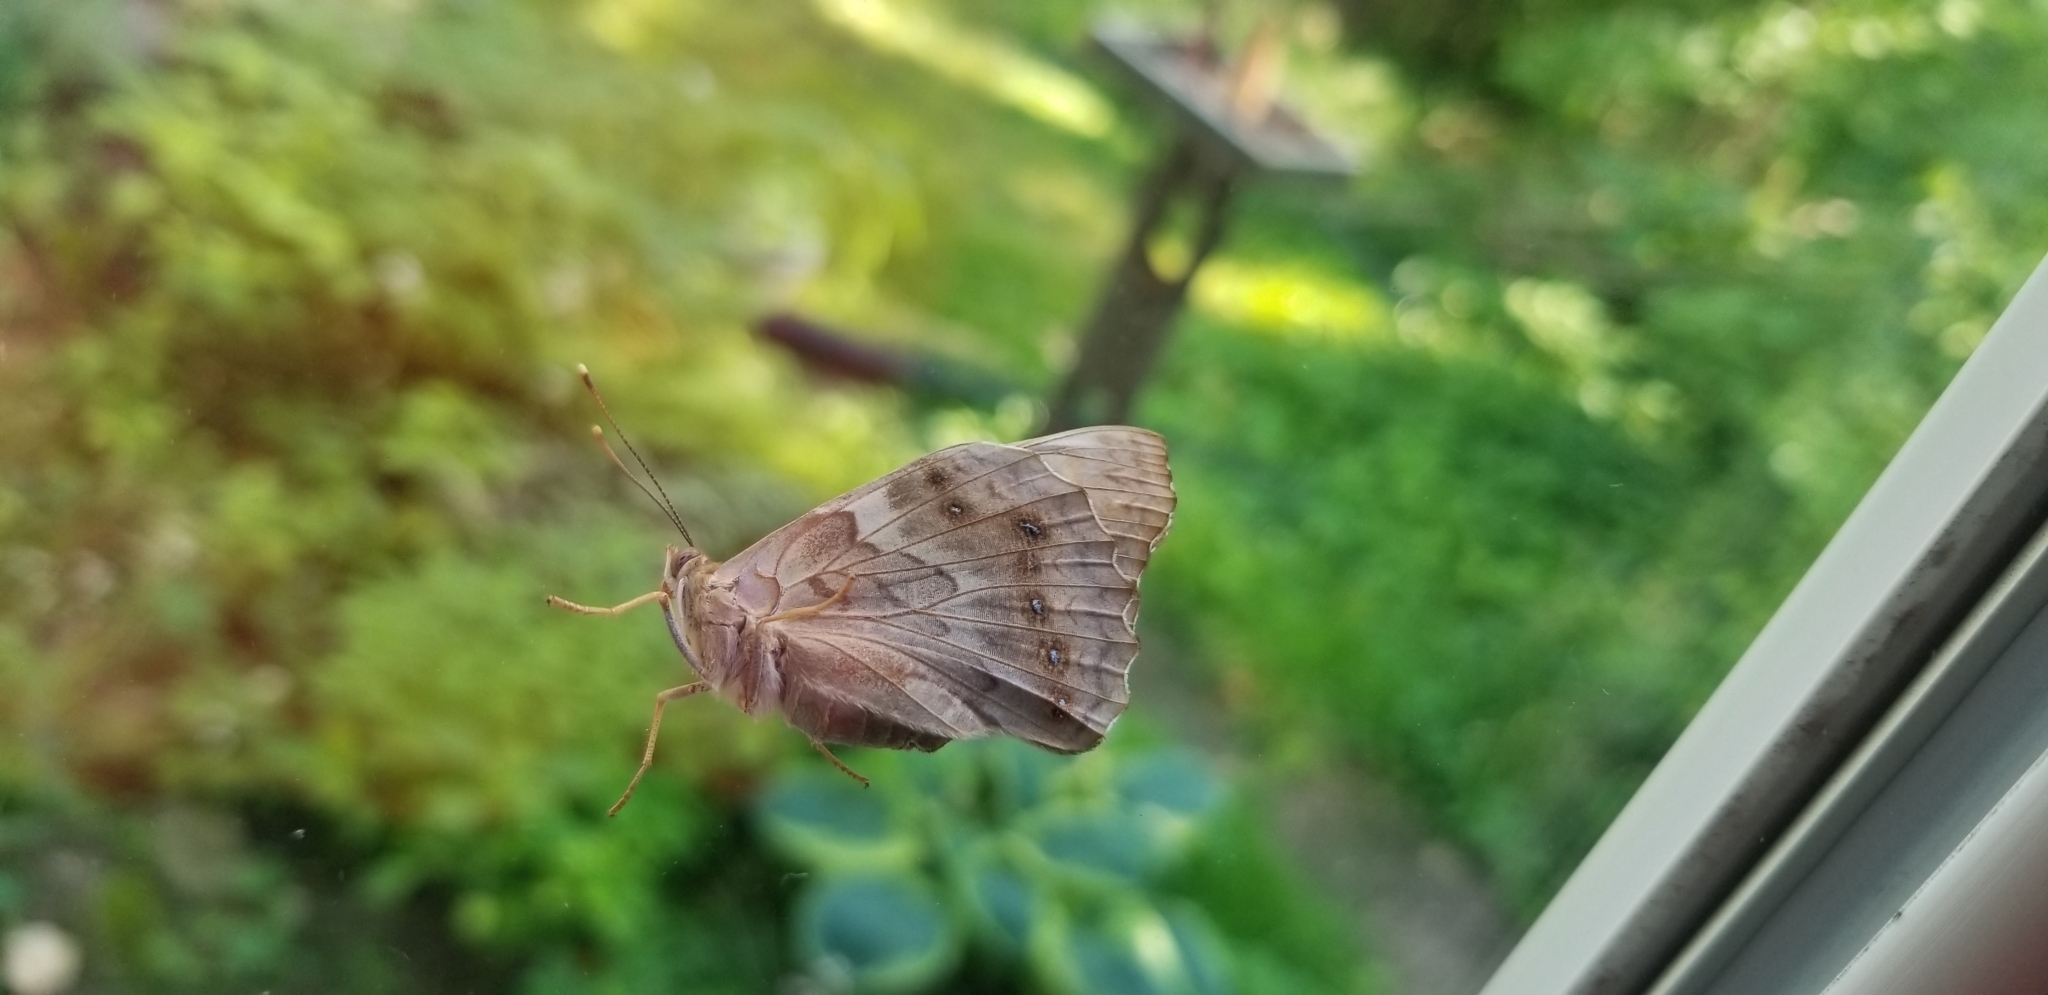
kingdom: Animalia
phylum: Arthropoda
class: Insecta
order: Lepidoptera
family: Nymphalidae
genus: Asterocampa
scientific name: Asterocampa clyton
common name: Tawny emperor
